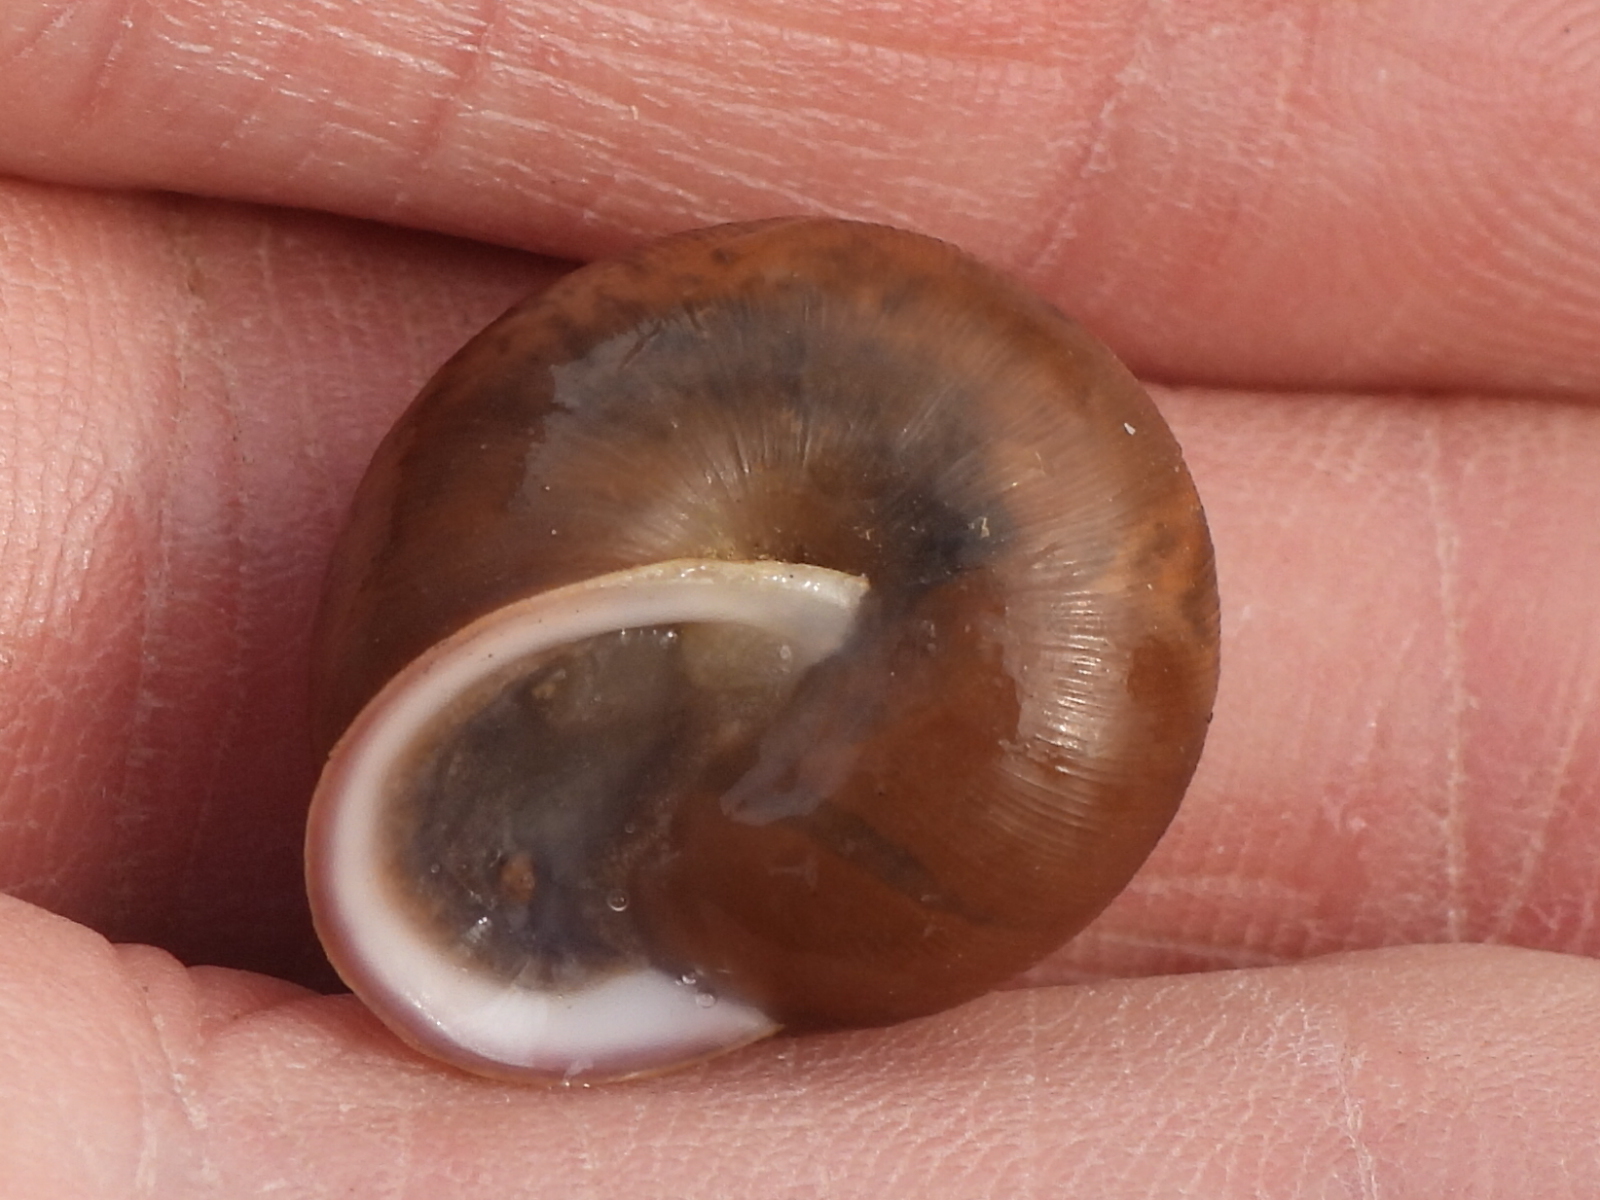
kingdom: Animalia
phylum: Mollusca
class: Gastropoda
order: Stylommatophora
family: Polygyridae
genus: Mesodon
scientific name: Mesodon thyroidus
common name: White-lip globe
